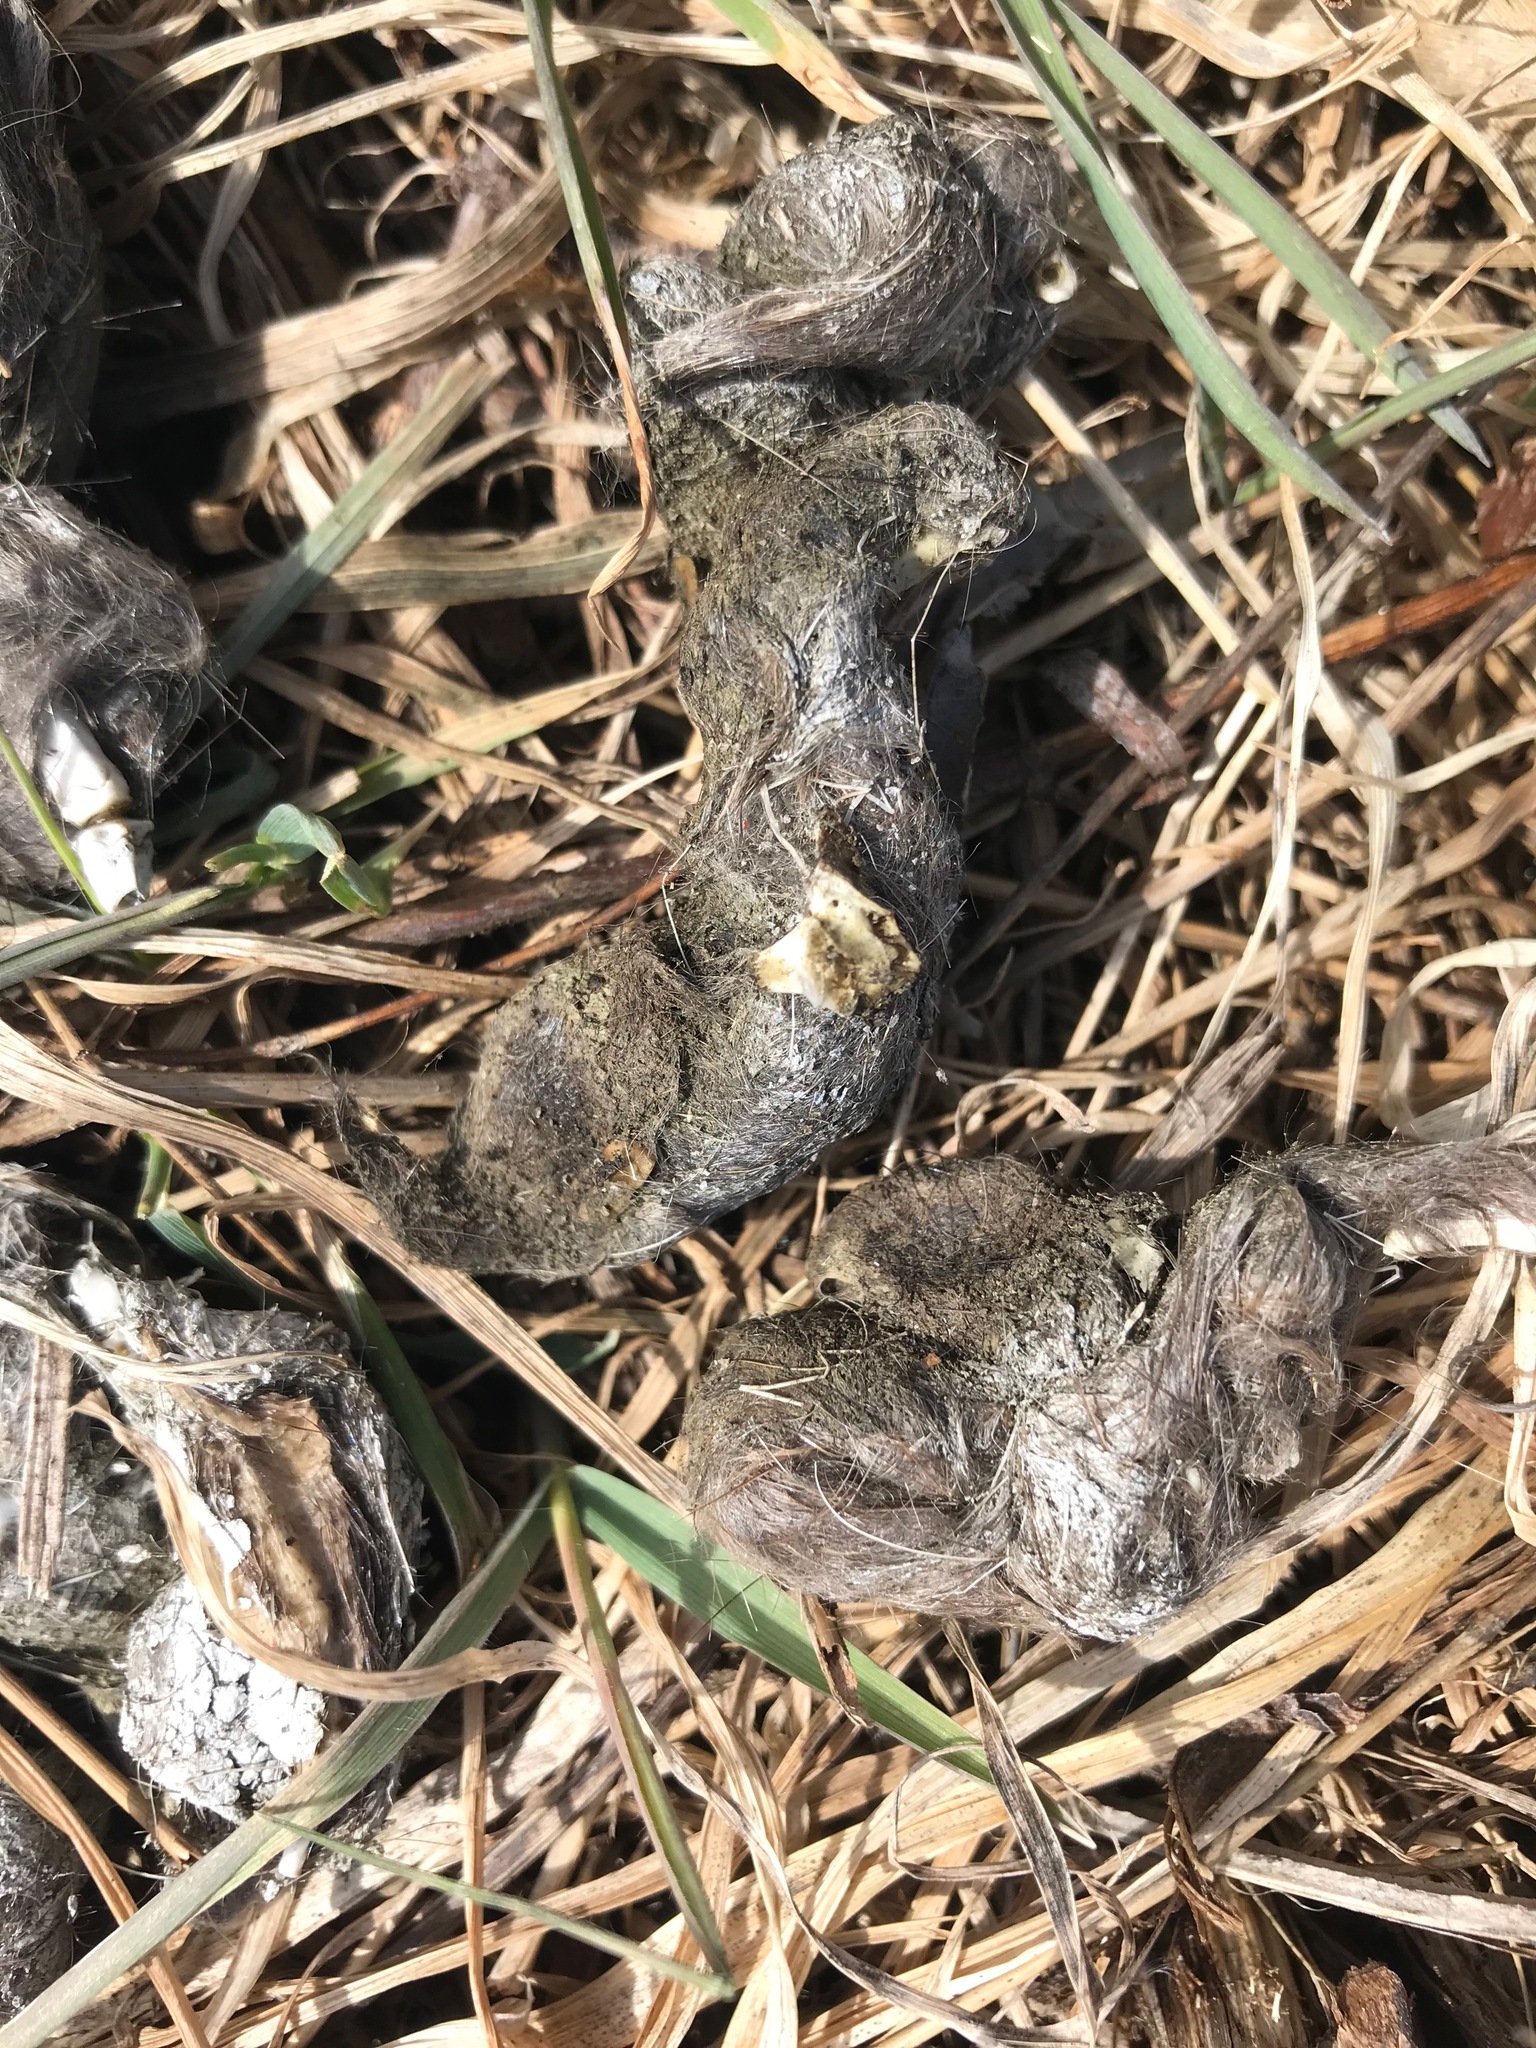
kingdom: Animalia
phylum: Chordata
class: Mammalia
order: Carnivora
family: Canidae
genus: Canis
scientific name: Canis latrans
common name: Coyote
